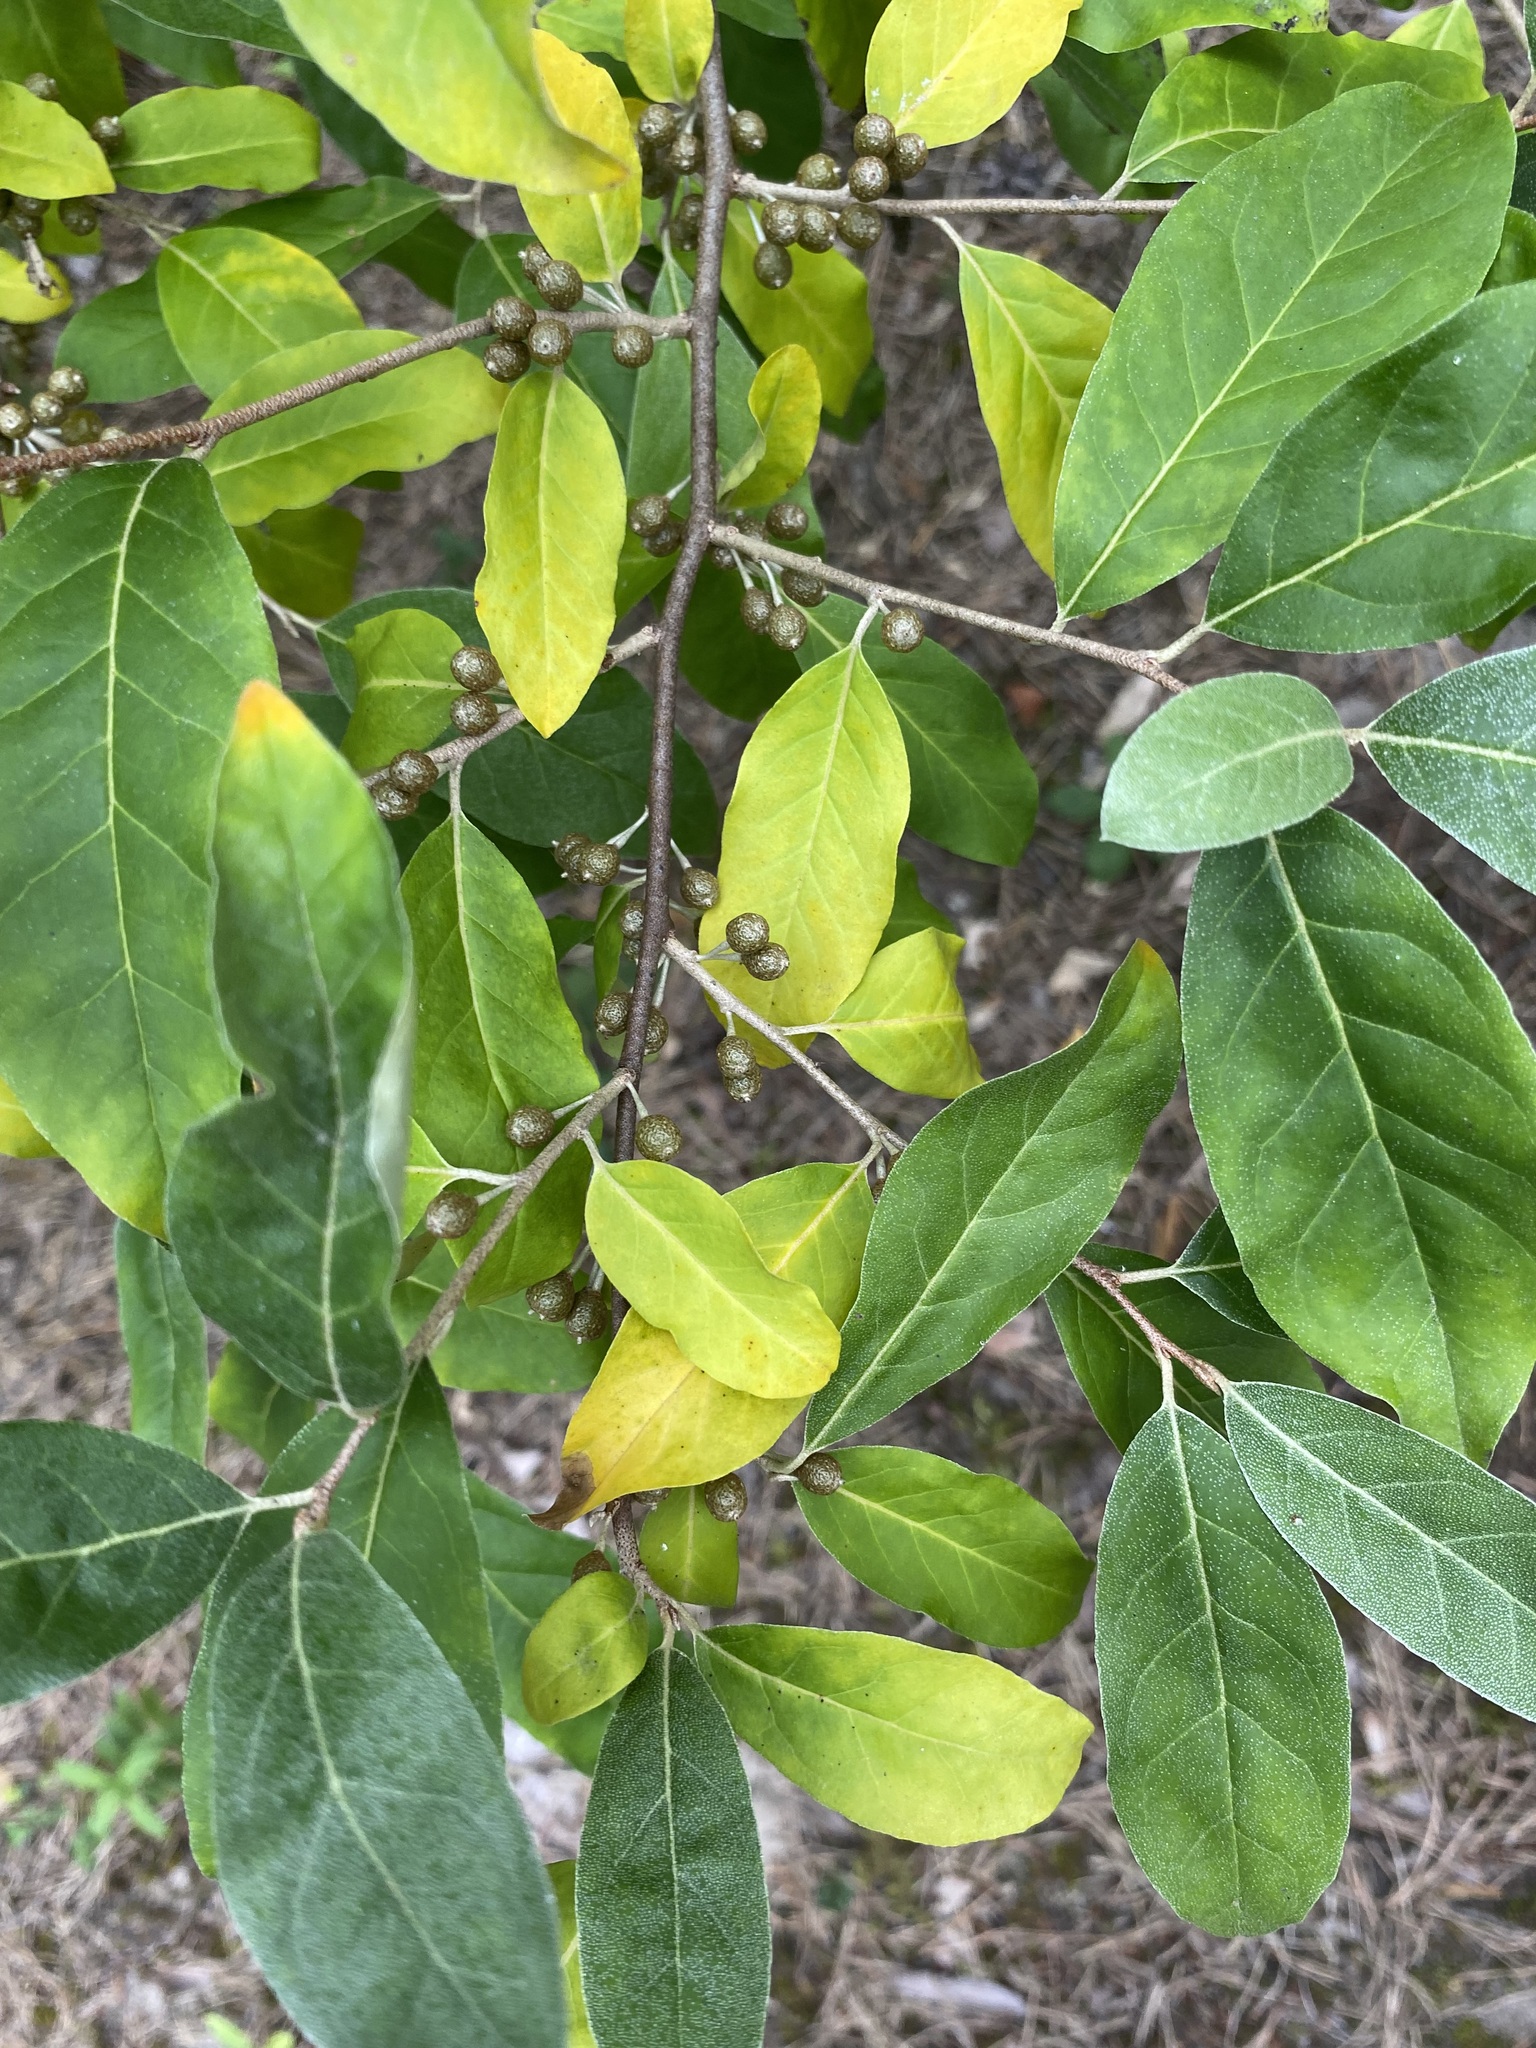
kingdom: Plantae
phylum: Tracheophyta
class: Magnoliopsida
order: Rosales
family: Elaeagnaceae
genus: Elaeagnus
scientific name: Elaeagnus umbellata
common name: Autumn olive
